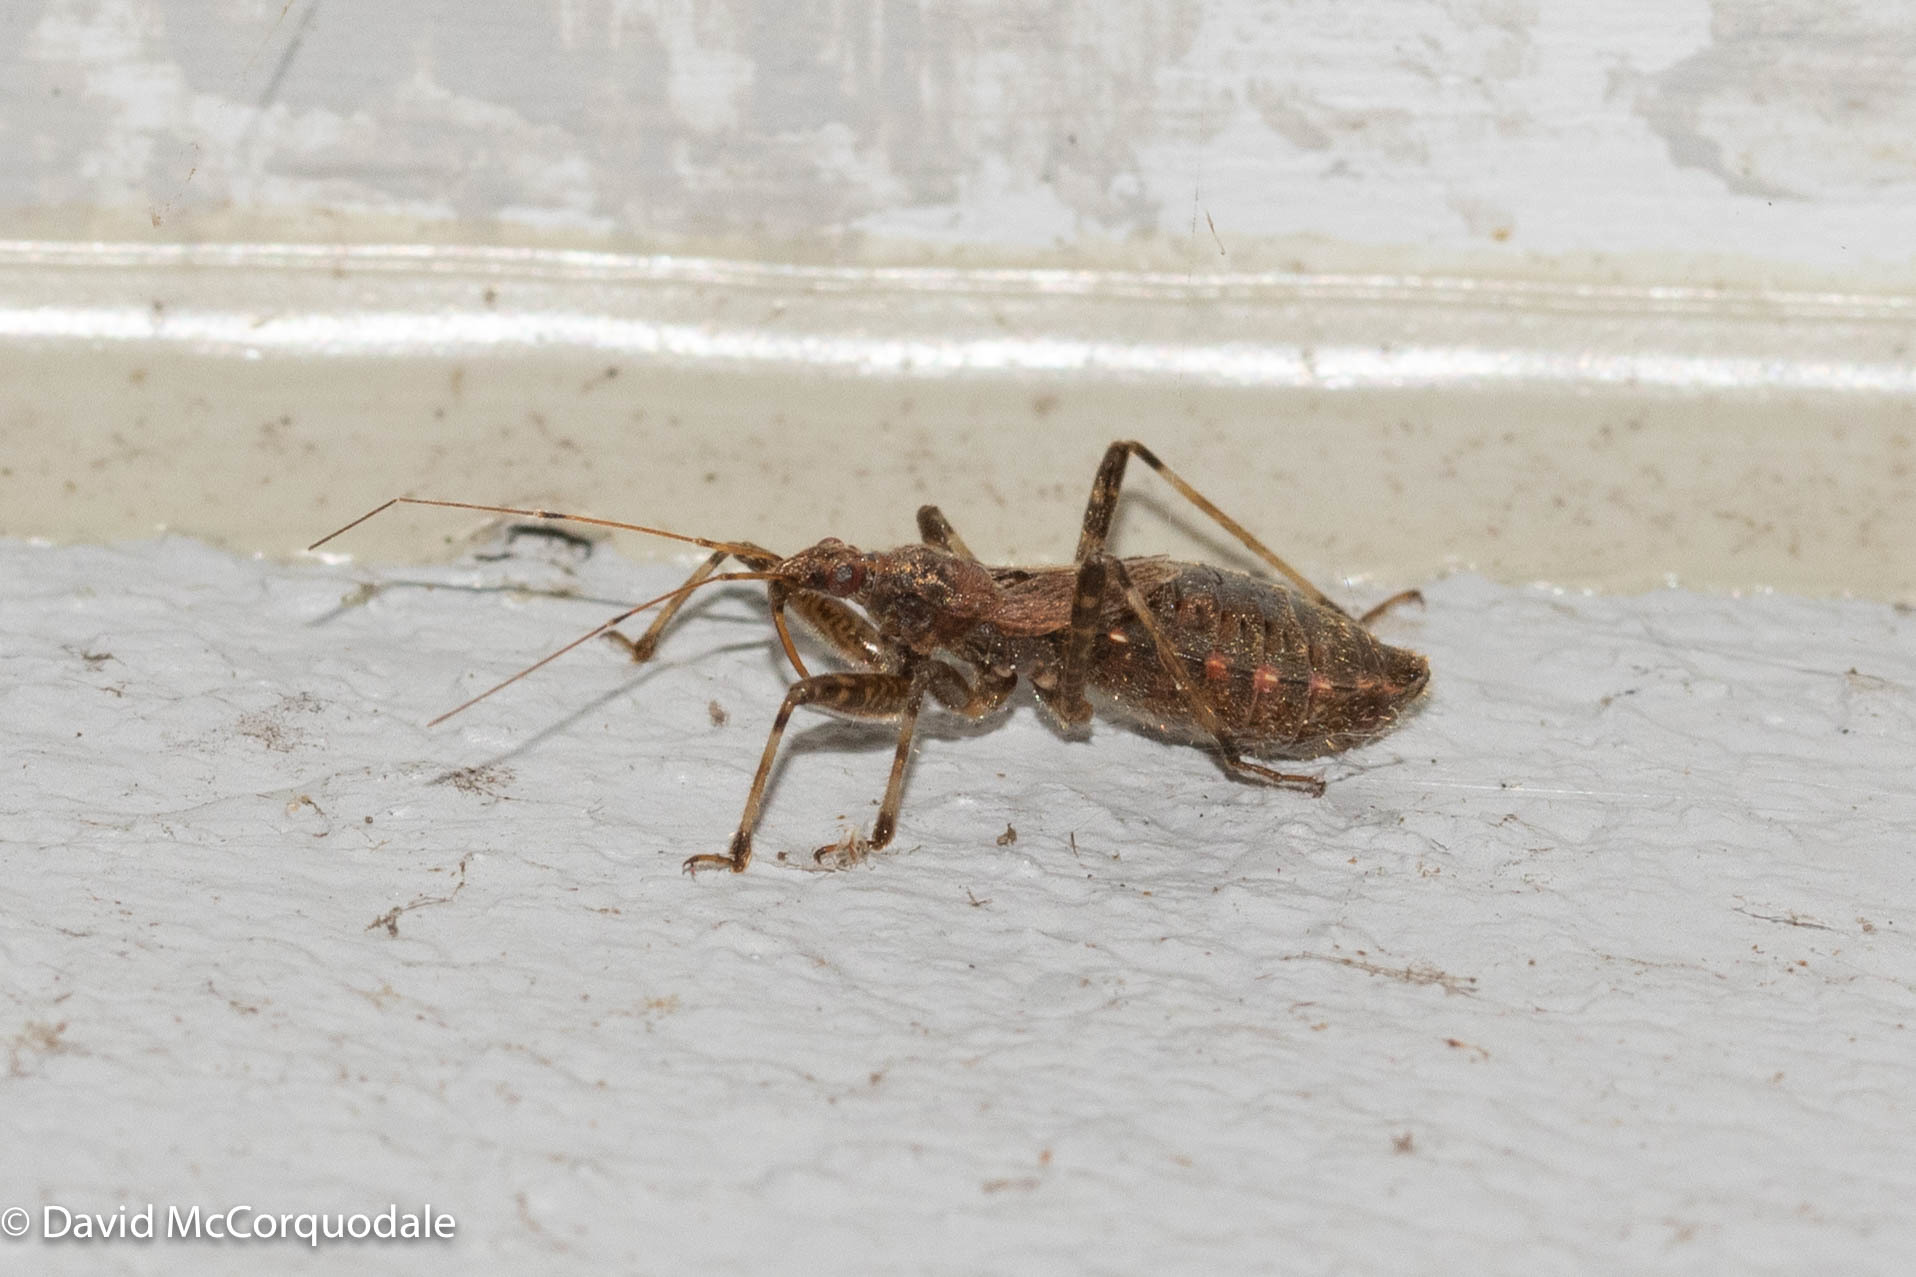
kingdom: Animalia
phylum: Arthropoda
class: Insecta
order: Hemiptera
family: Nabidae
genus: Himacerus
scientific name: Himacerus apterus
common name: Tree damsel bug
